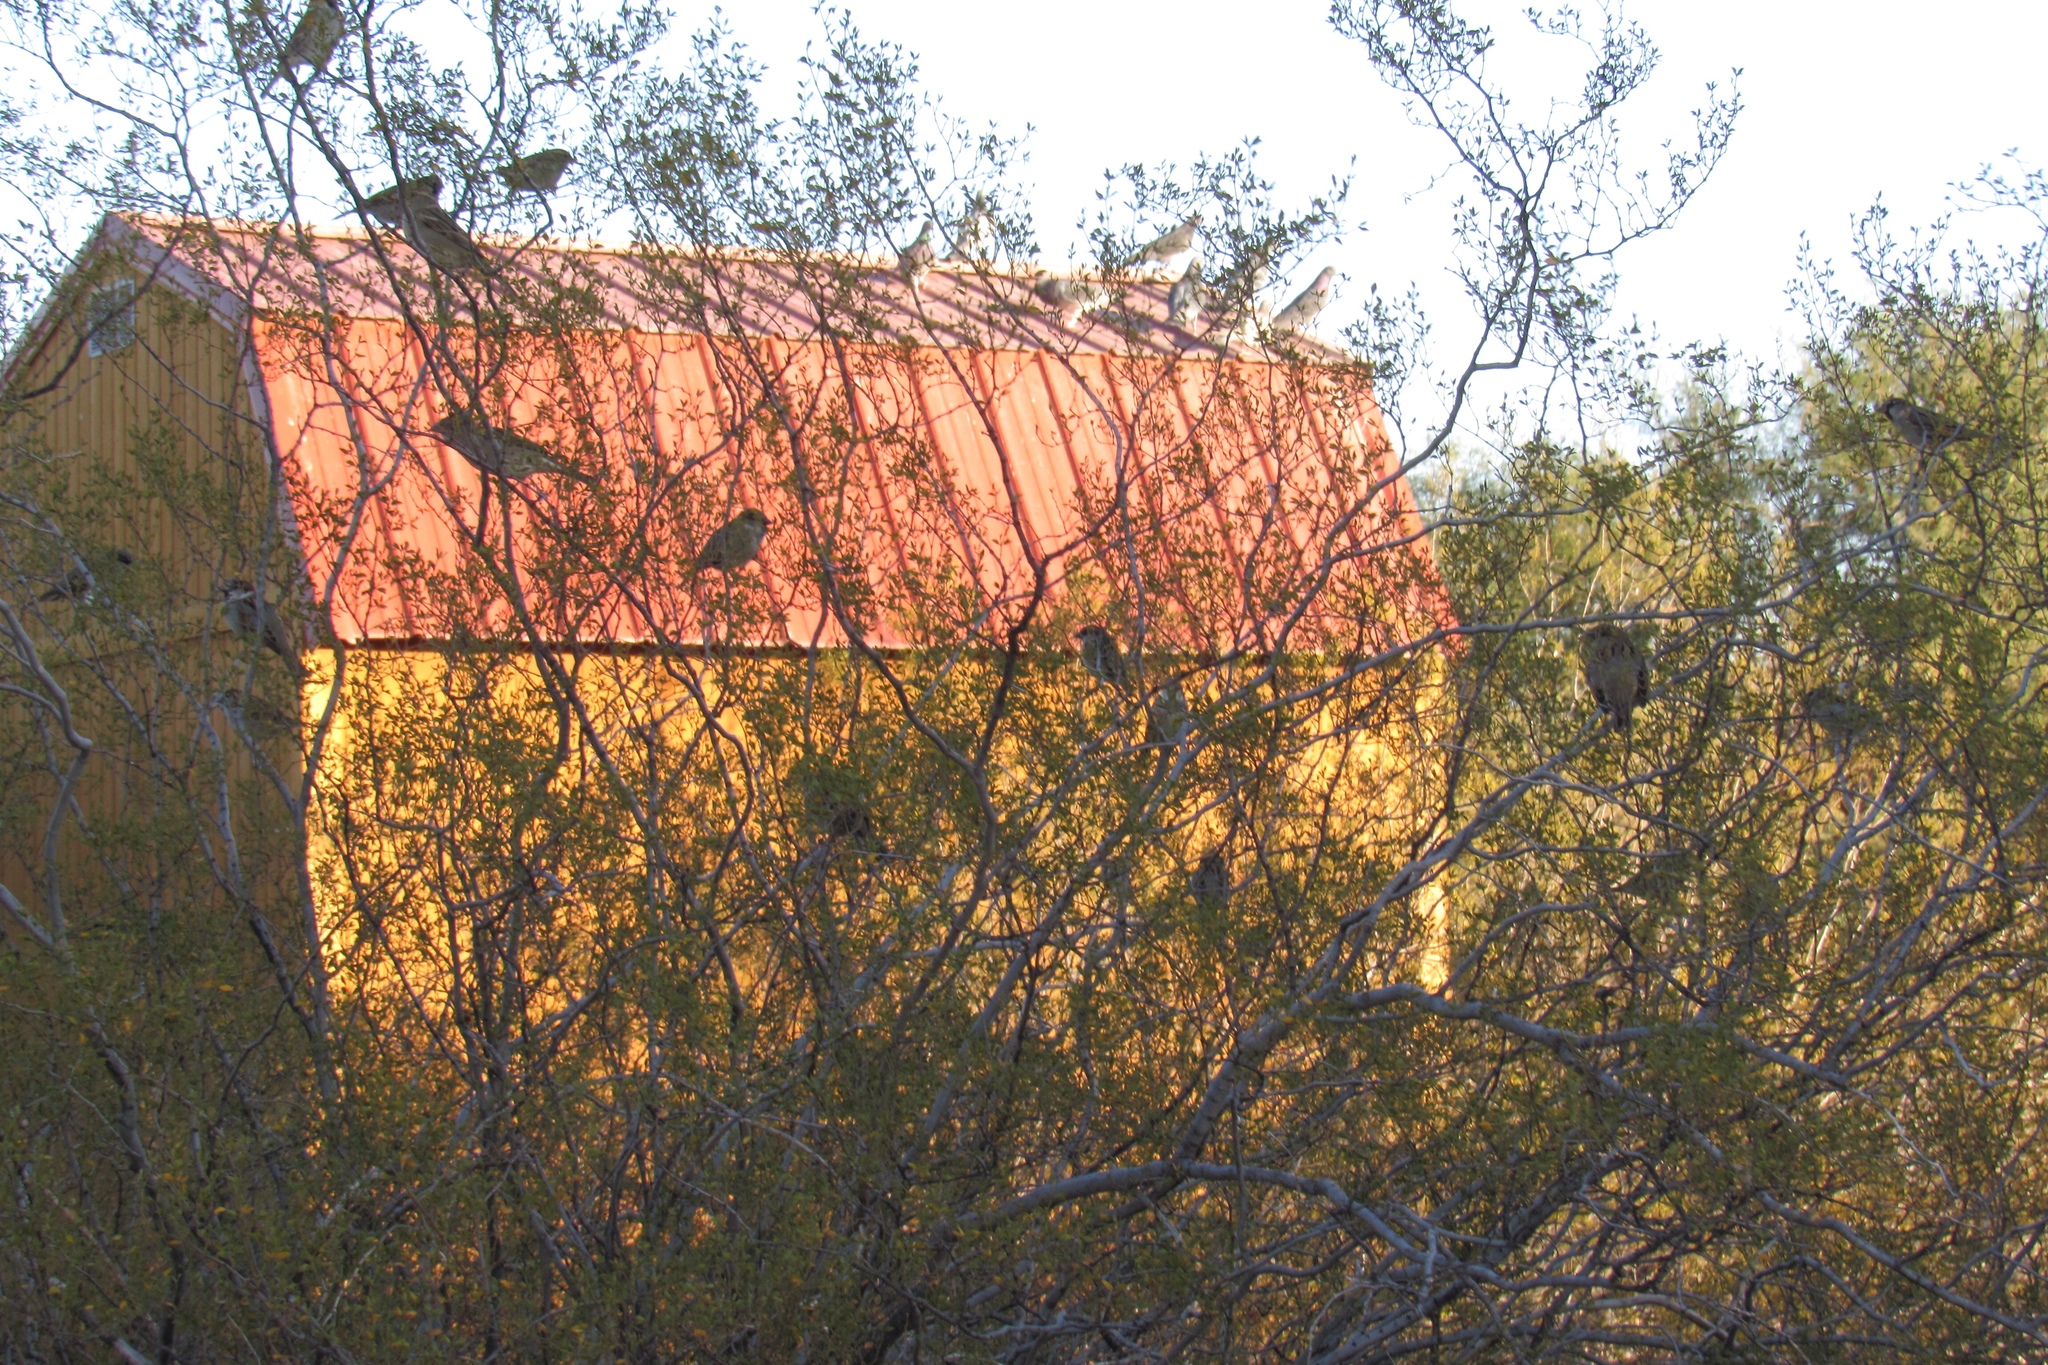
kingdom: Animalia
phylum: Chordata
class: Aves
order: Columbiformes
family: Columbidae
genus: Columba
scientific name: Columba livia
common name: Rock pigeon
